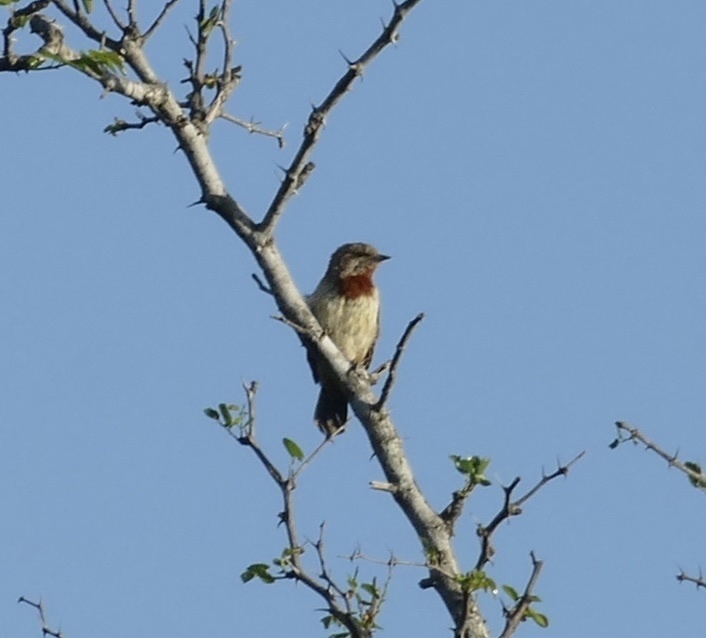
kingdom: Animalia
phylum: Chordata
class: Aves
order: Piciformes
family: Picidae
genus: Jynx
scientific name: Jynx ruficollis
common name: Red-throated wryneck
